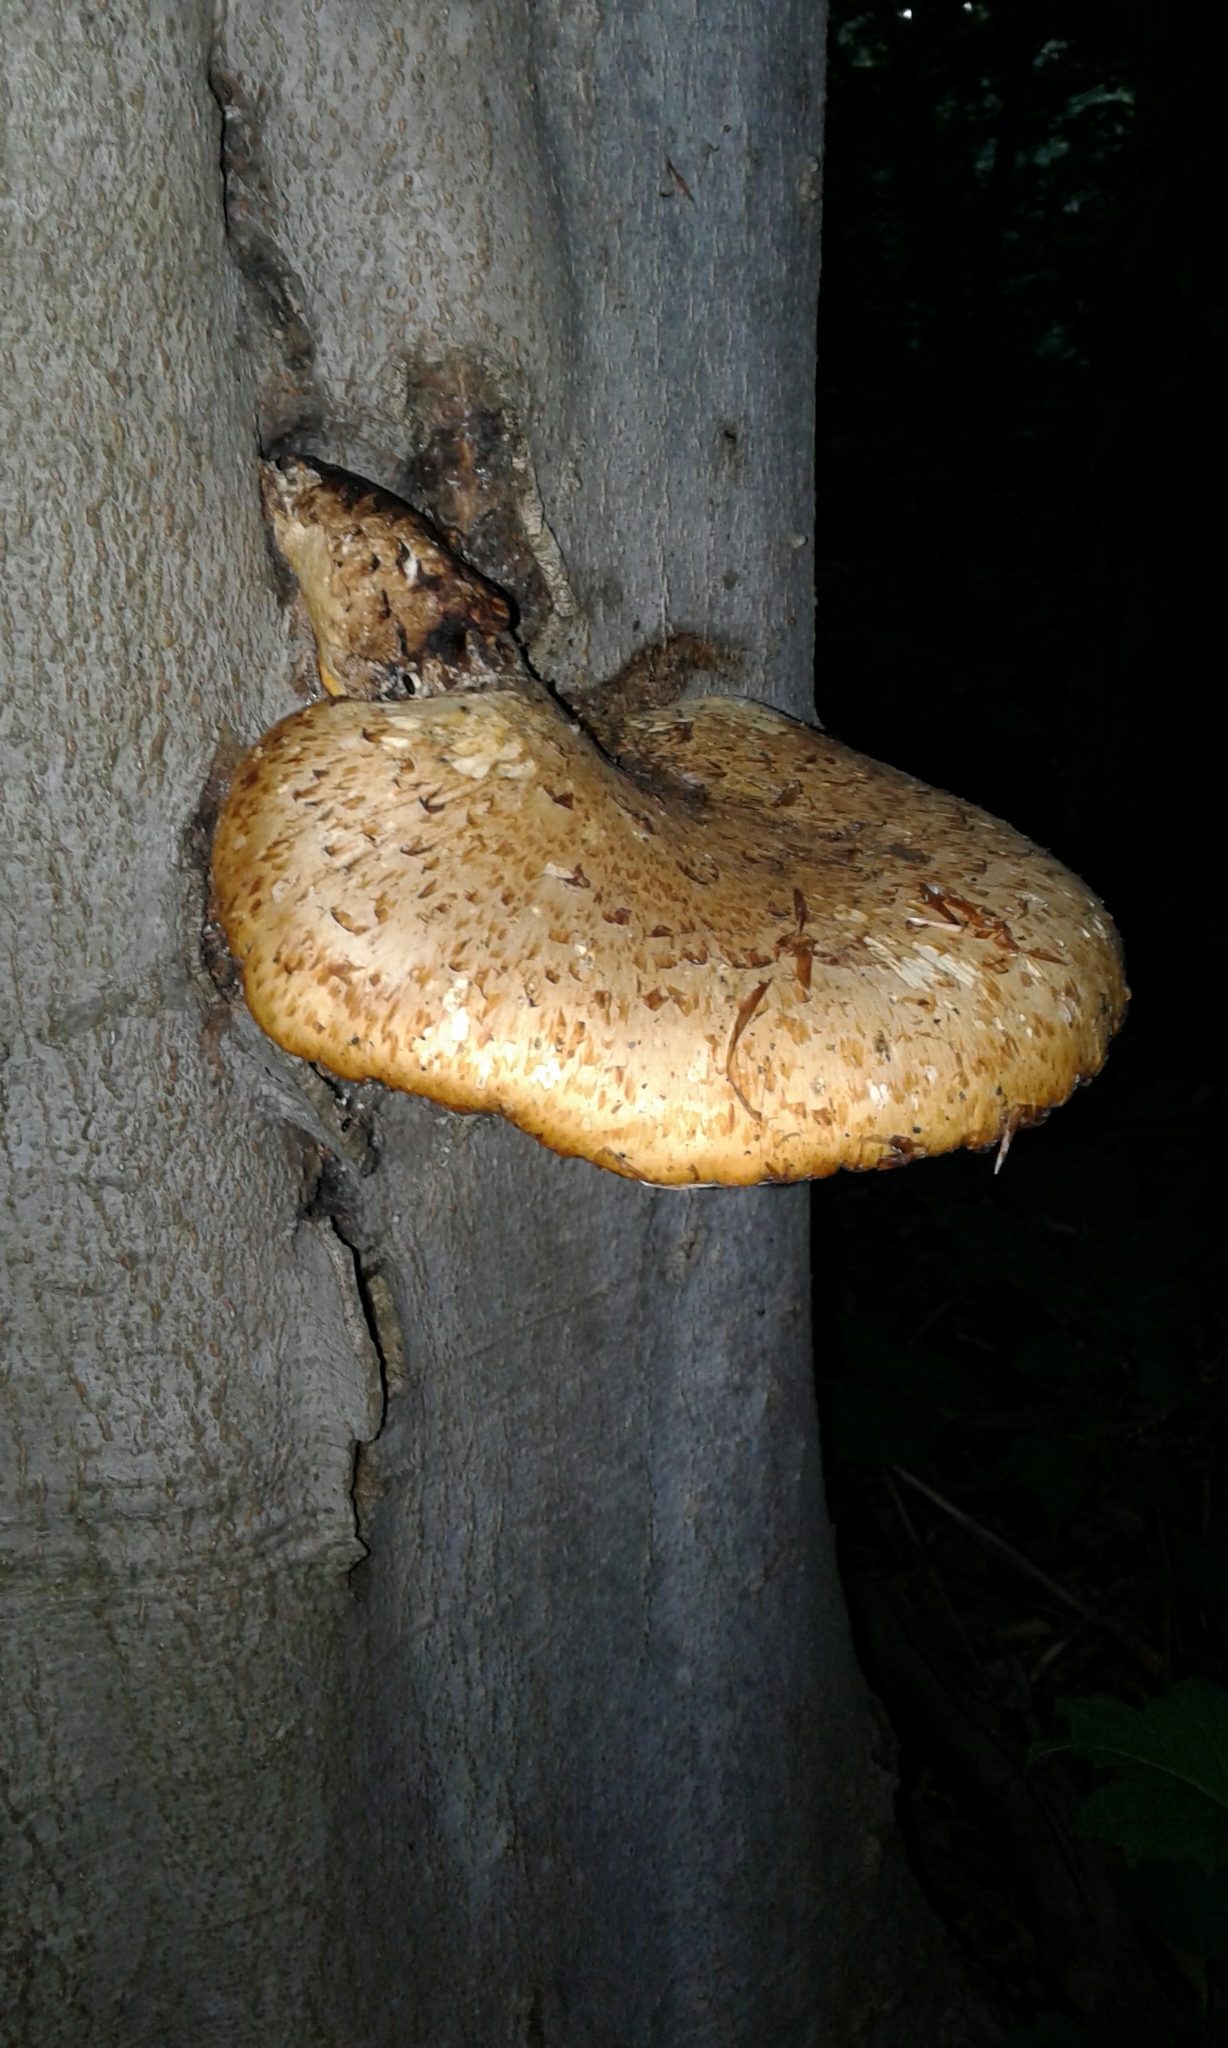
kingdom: Fungi
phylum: Basidiomycota
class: Agaricomycetes
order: Polyporales
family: Polyporaceae
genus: Cerioporus
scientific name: Cerioporus squamosus
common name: Dryad's saddle
